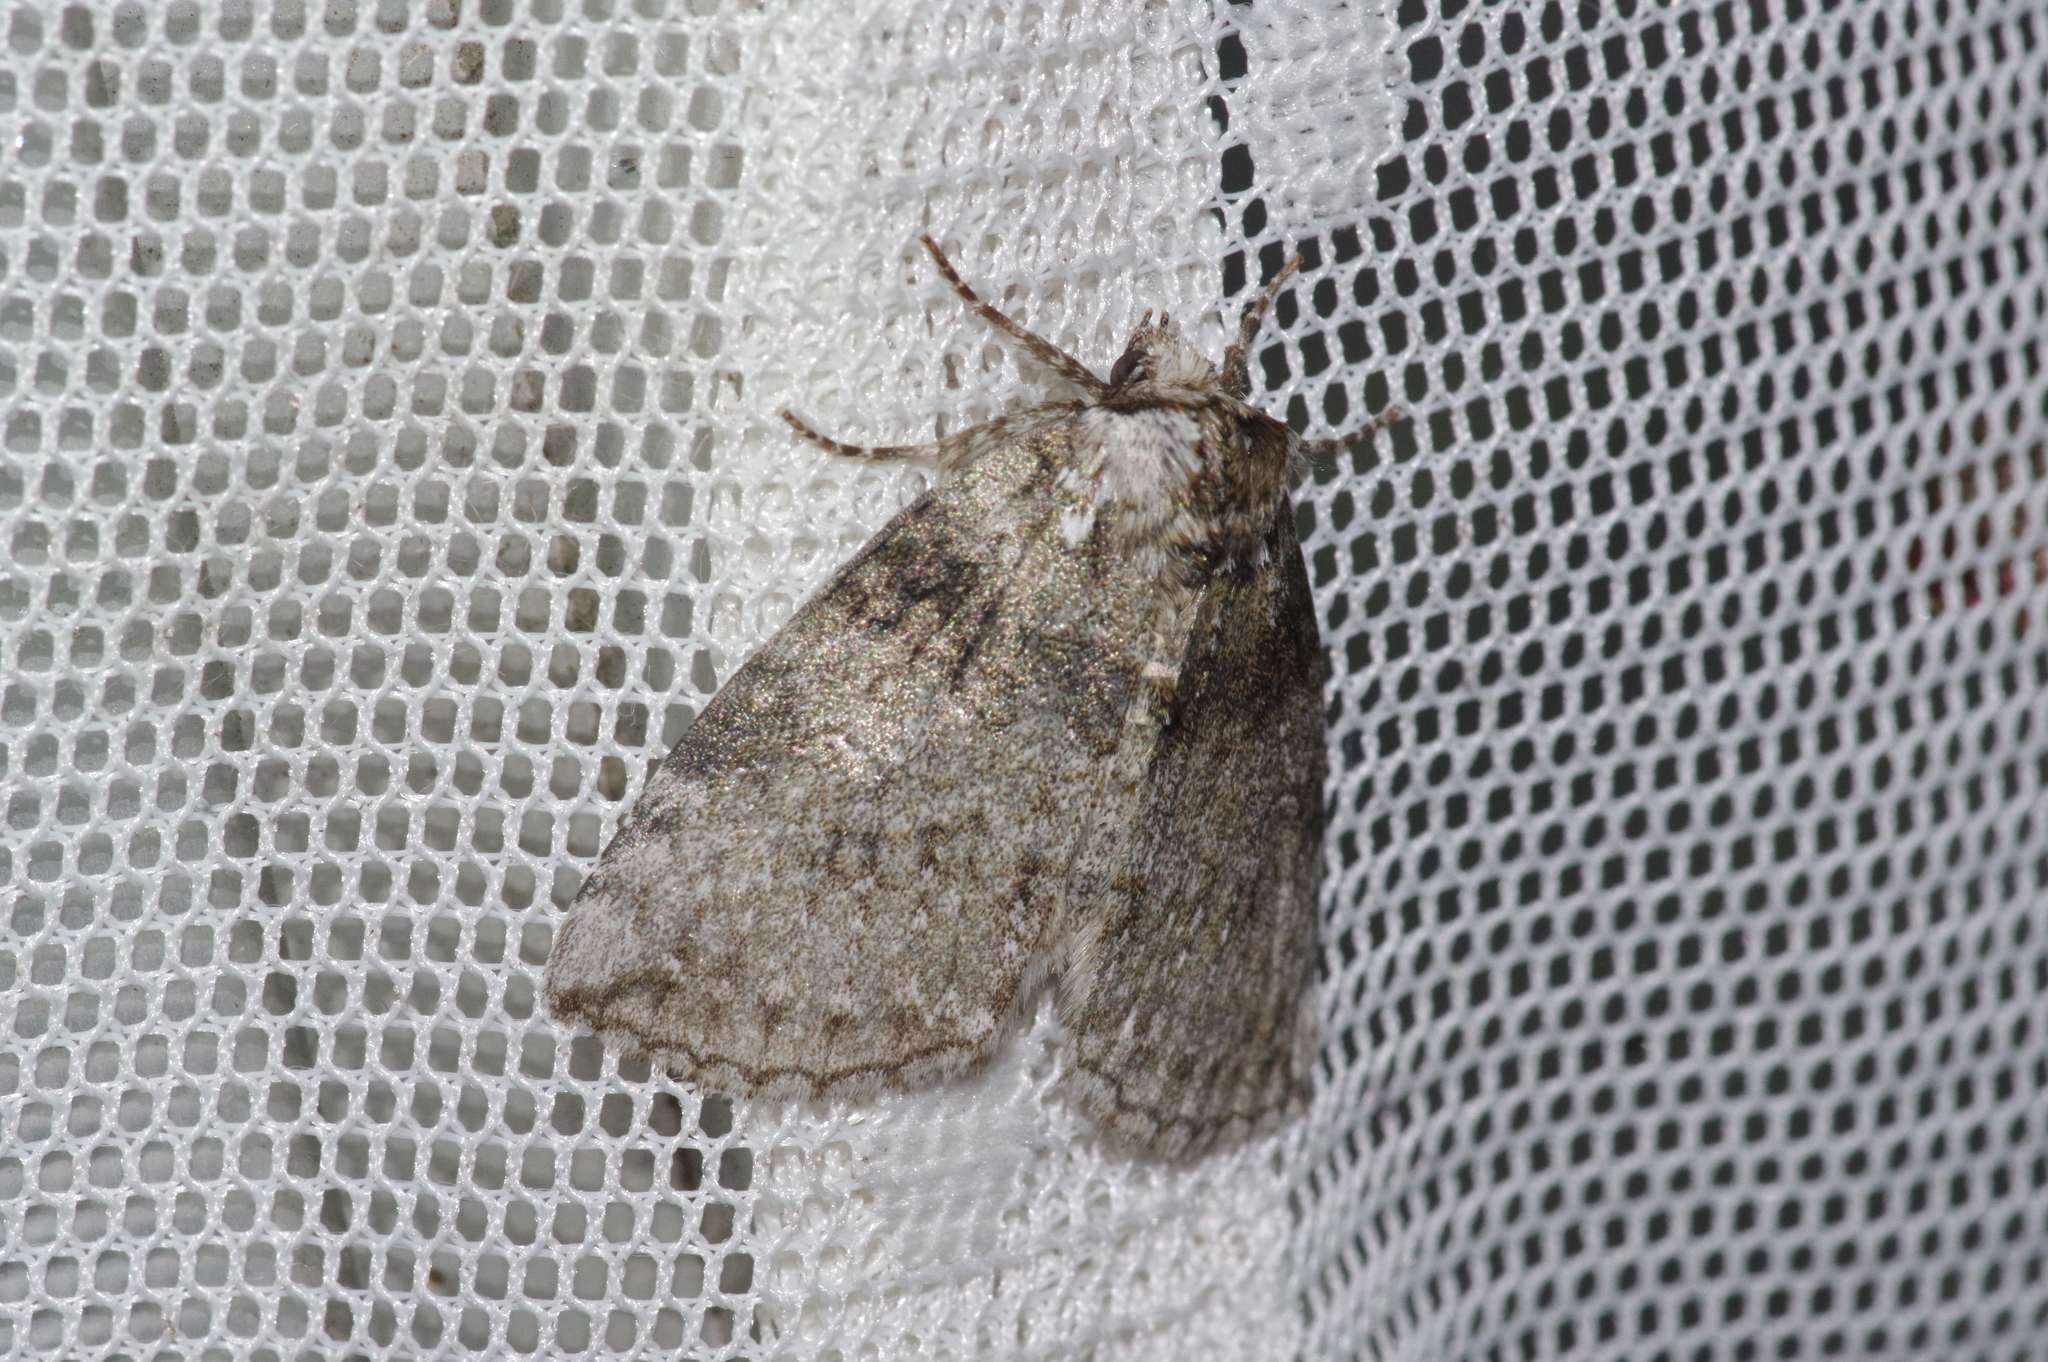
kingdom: Animalia
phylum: Arthropoda
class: Insecta
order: Lepidoptera
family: Drepanidae
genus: Parapsestis
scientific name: Parapsestis argenteopicta
